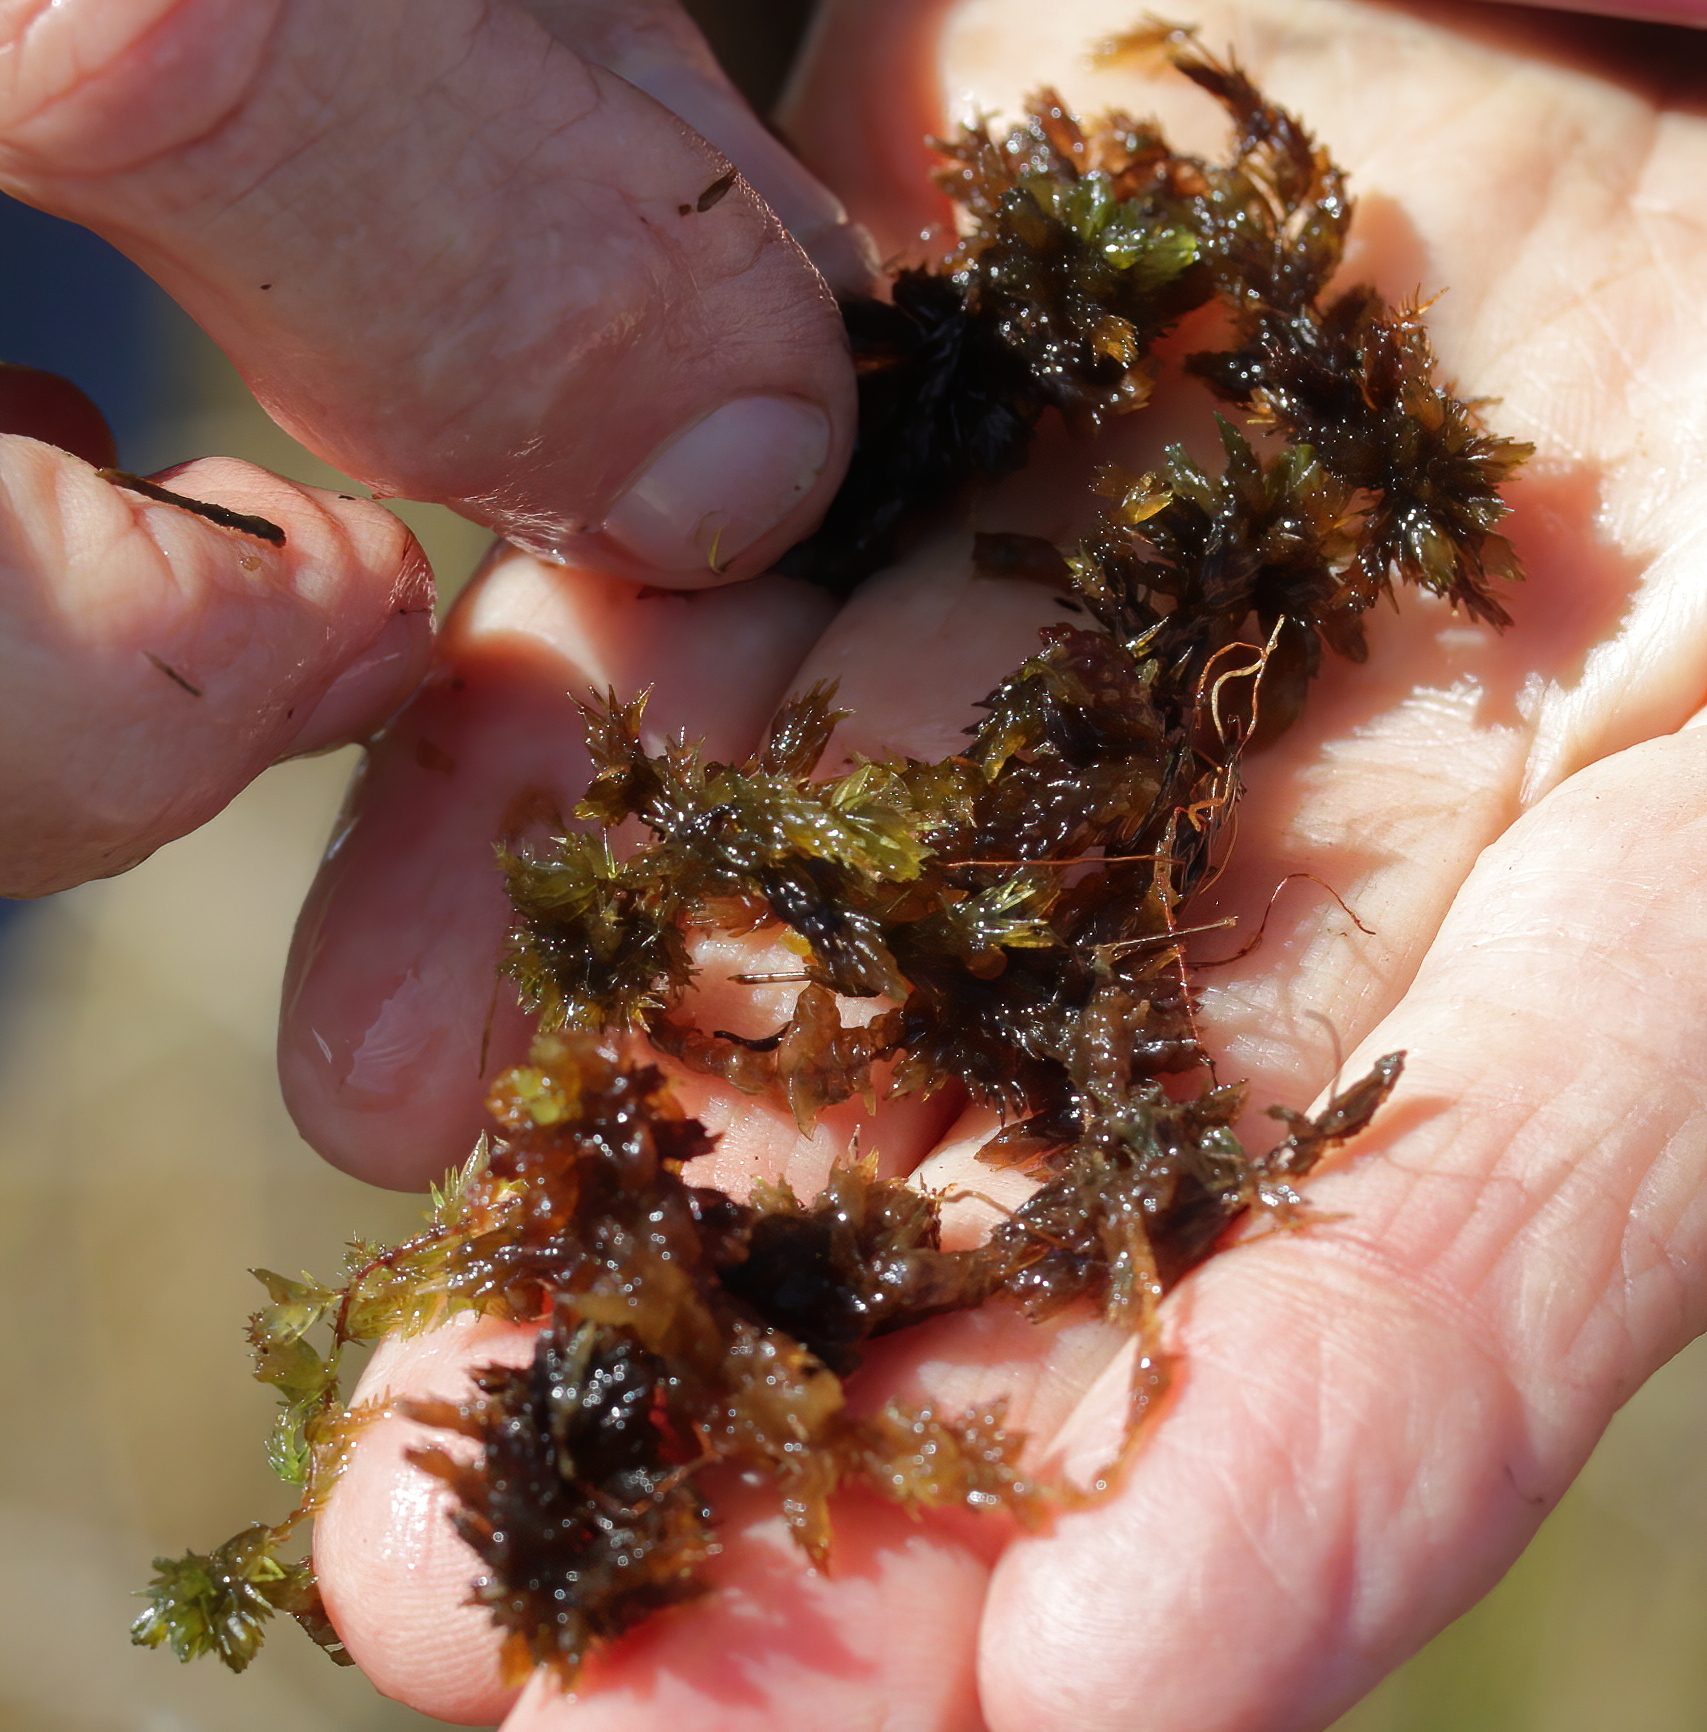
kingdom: Plantae
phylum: Bryophyta
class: Sphagnopsida
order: Sphagnales
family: Sphagnaceae
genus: Sphagnum
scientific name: Sphagnum macrophyllum
